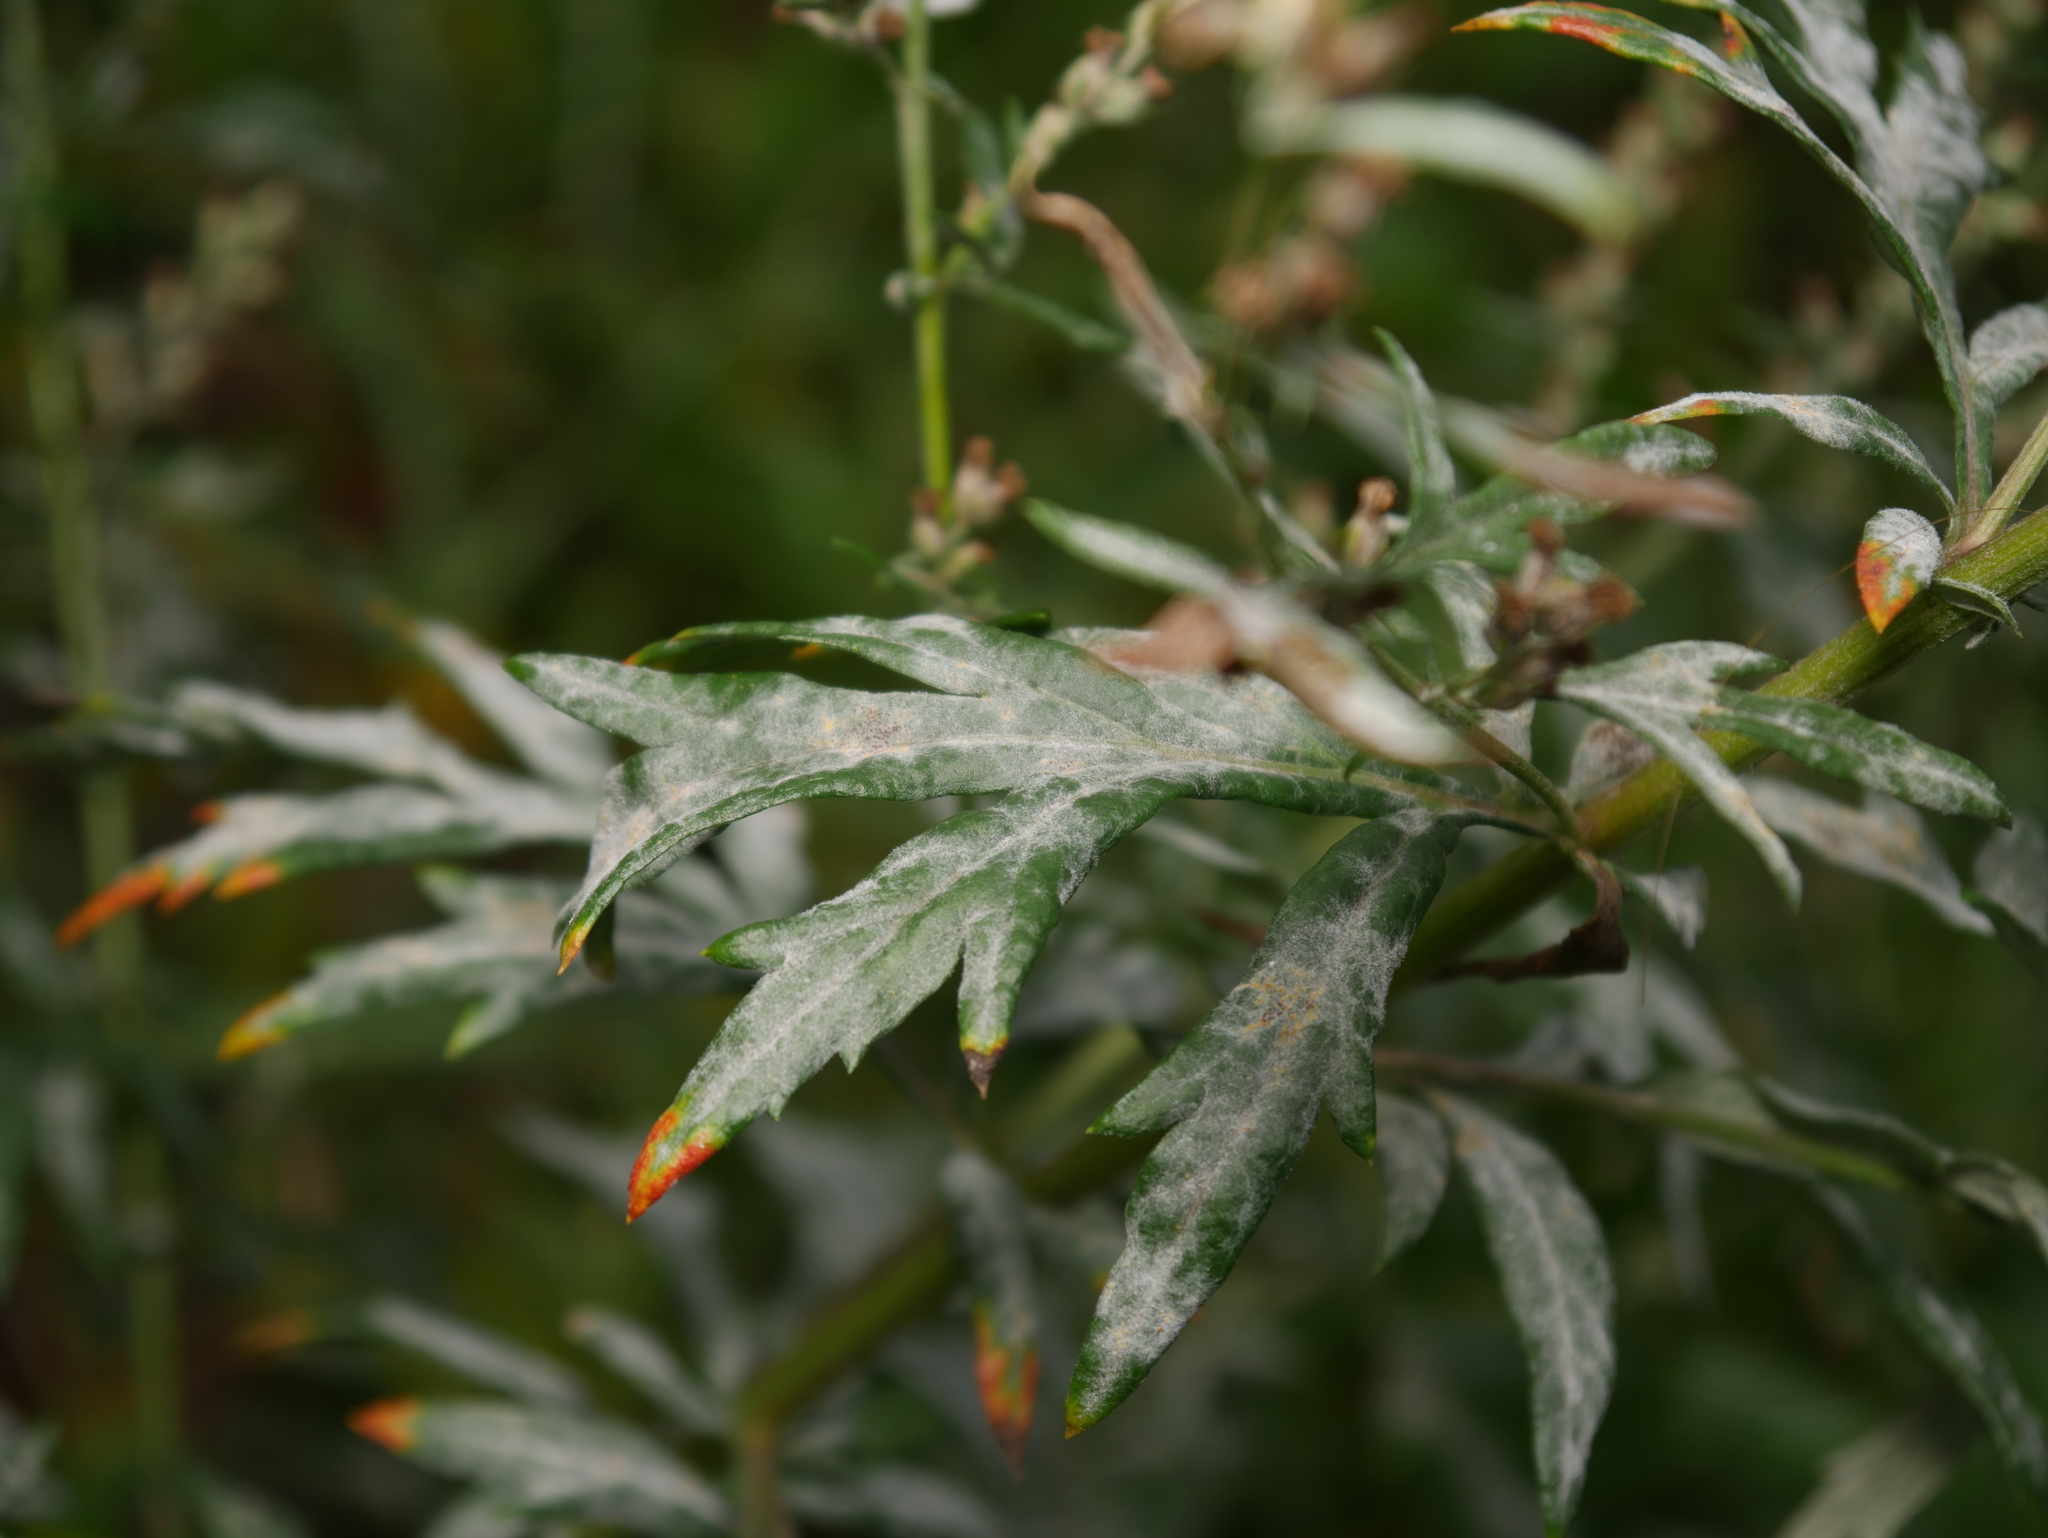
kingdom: Fungi
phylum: Ascomycota
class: Leotiomycetes
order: Helotiales
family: Erysiphaceae
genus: Golovinomyces
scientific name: Golovinomyces artemisiae
